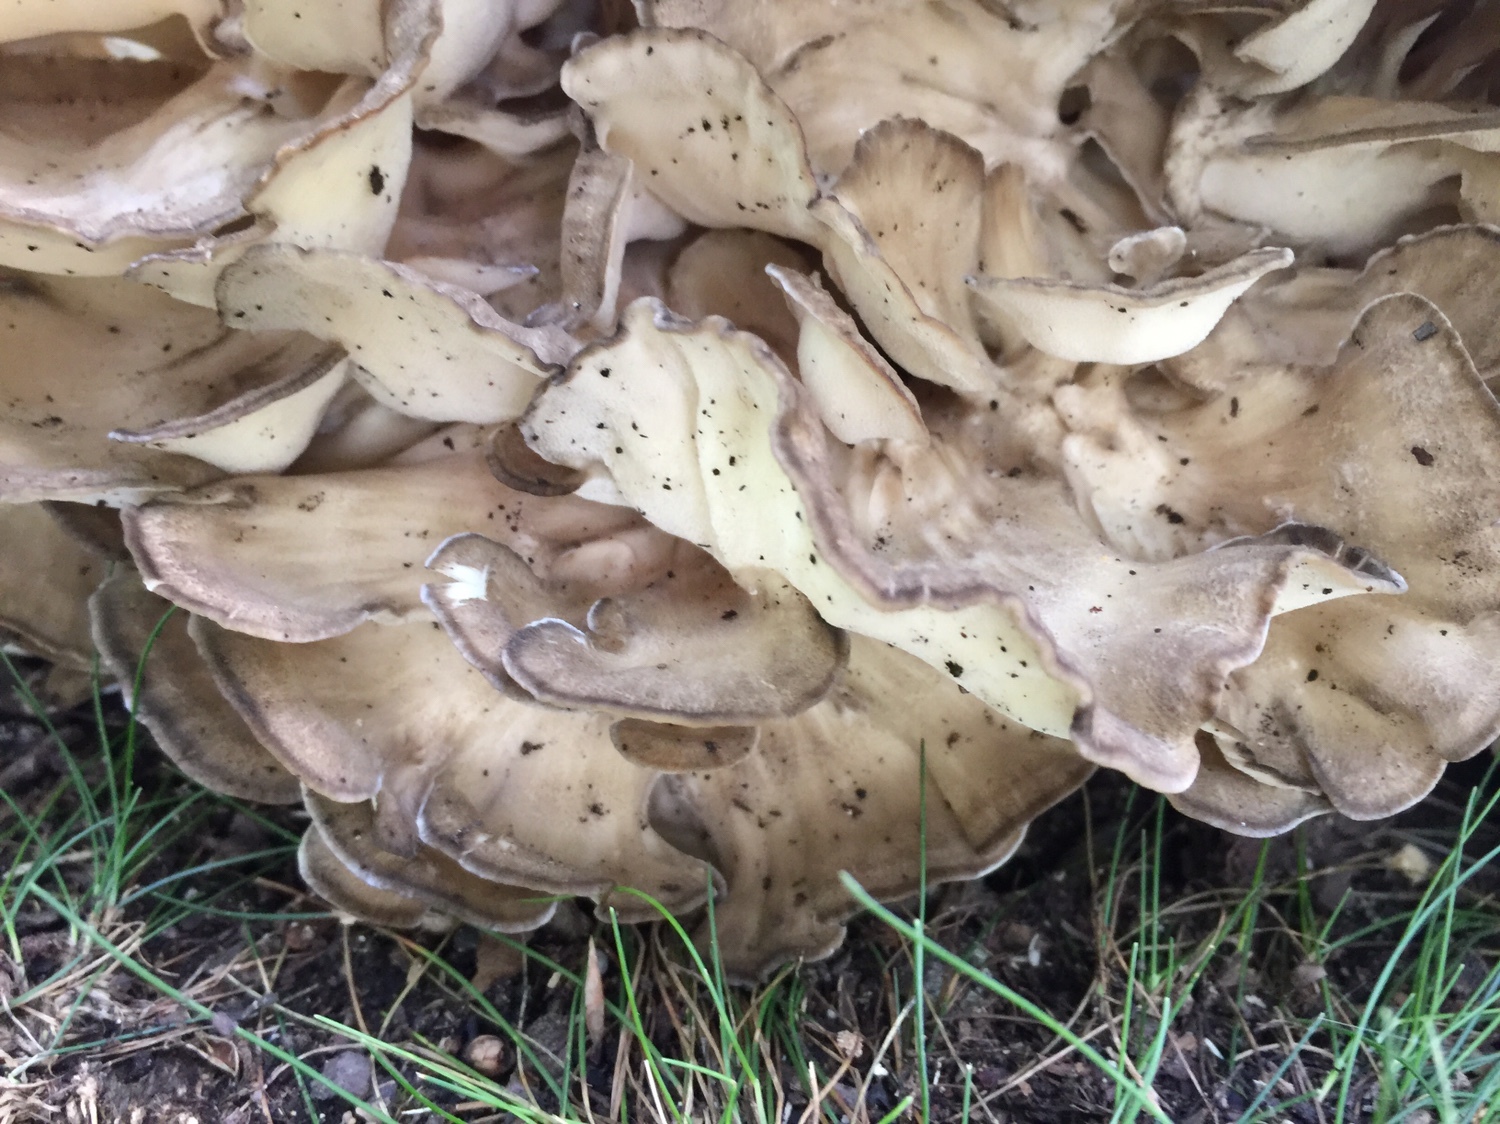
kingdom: Fungi
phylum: Basidiomycota
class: Agaricomycetes
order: Polyporales
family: Grifolaceae
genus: Grifola
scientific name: Grifola frondosa
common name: Hen of the woods
